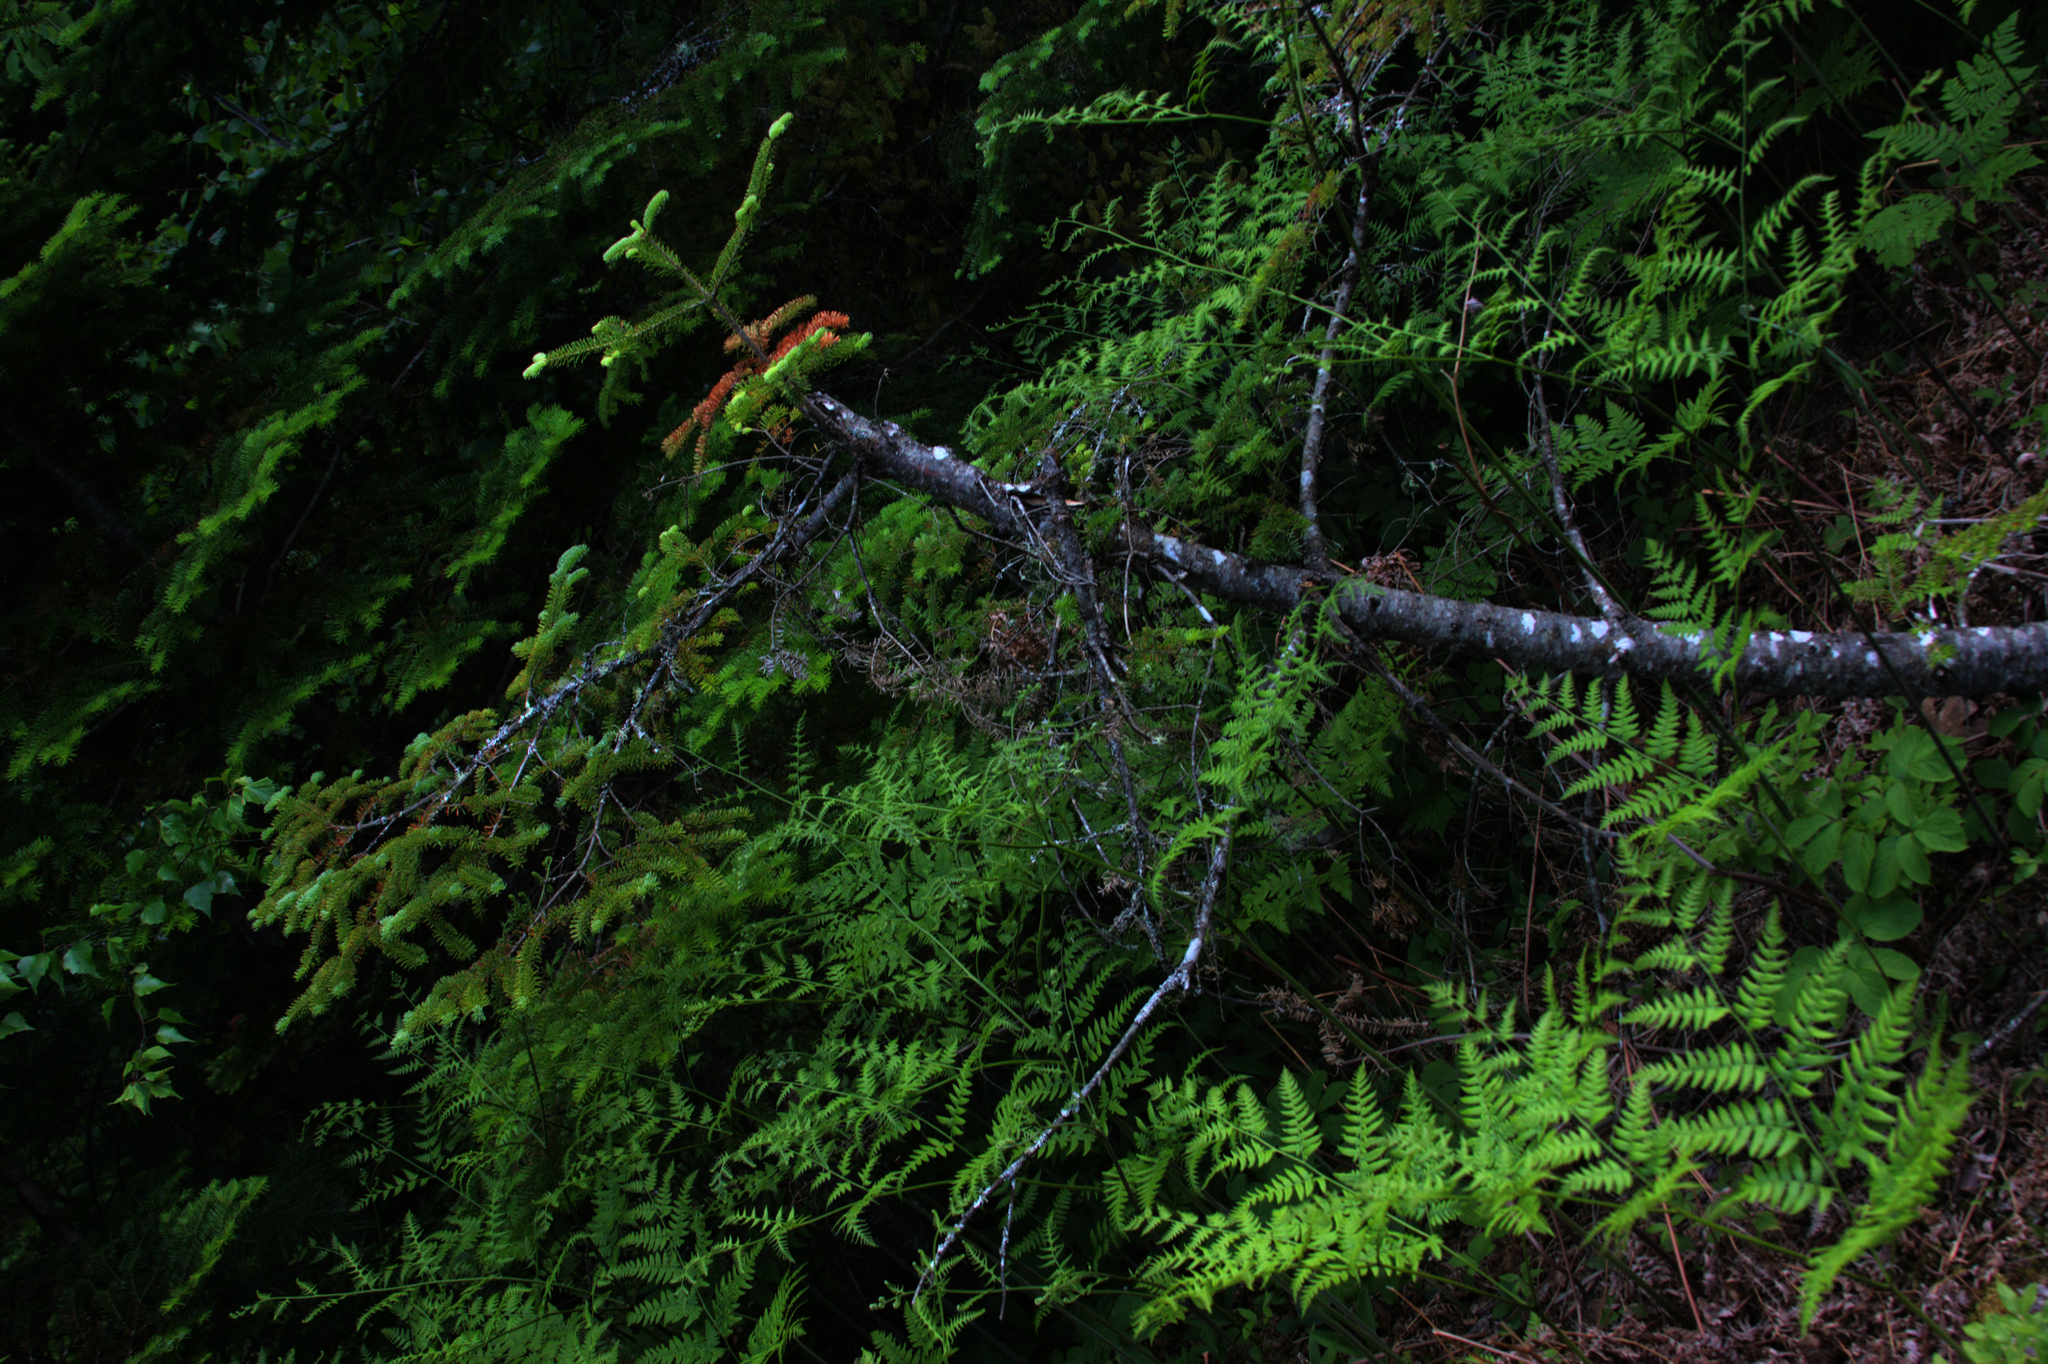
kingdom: Plantae
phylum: Tracheophyta
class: Pinopsida
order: Pinales
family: Pinaceae
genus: Abies
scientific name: Abies balsamea
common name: Balsam fir
